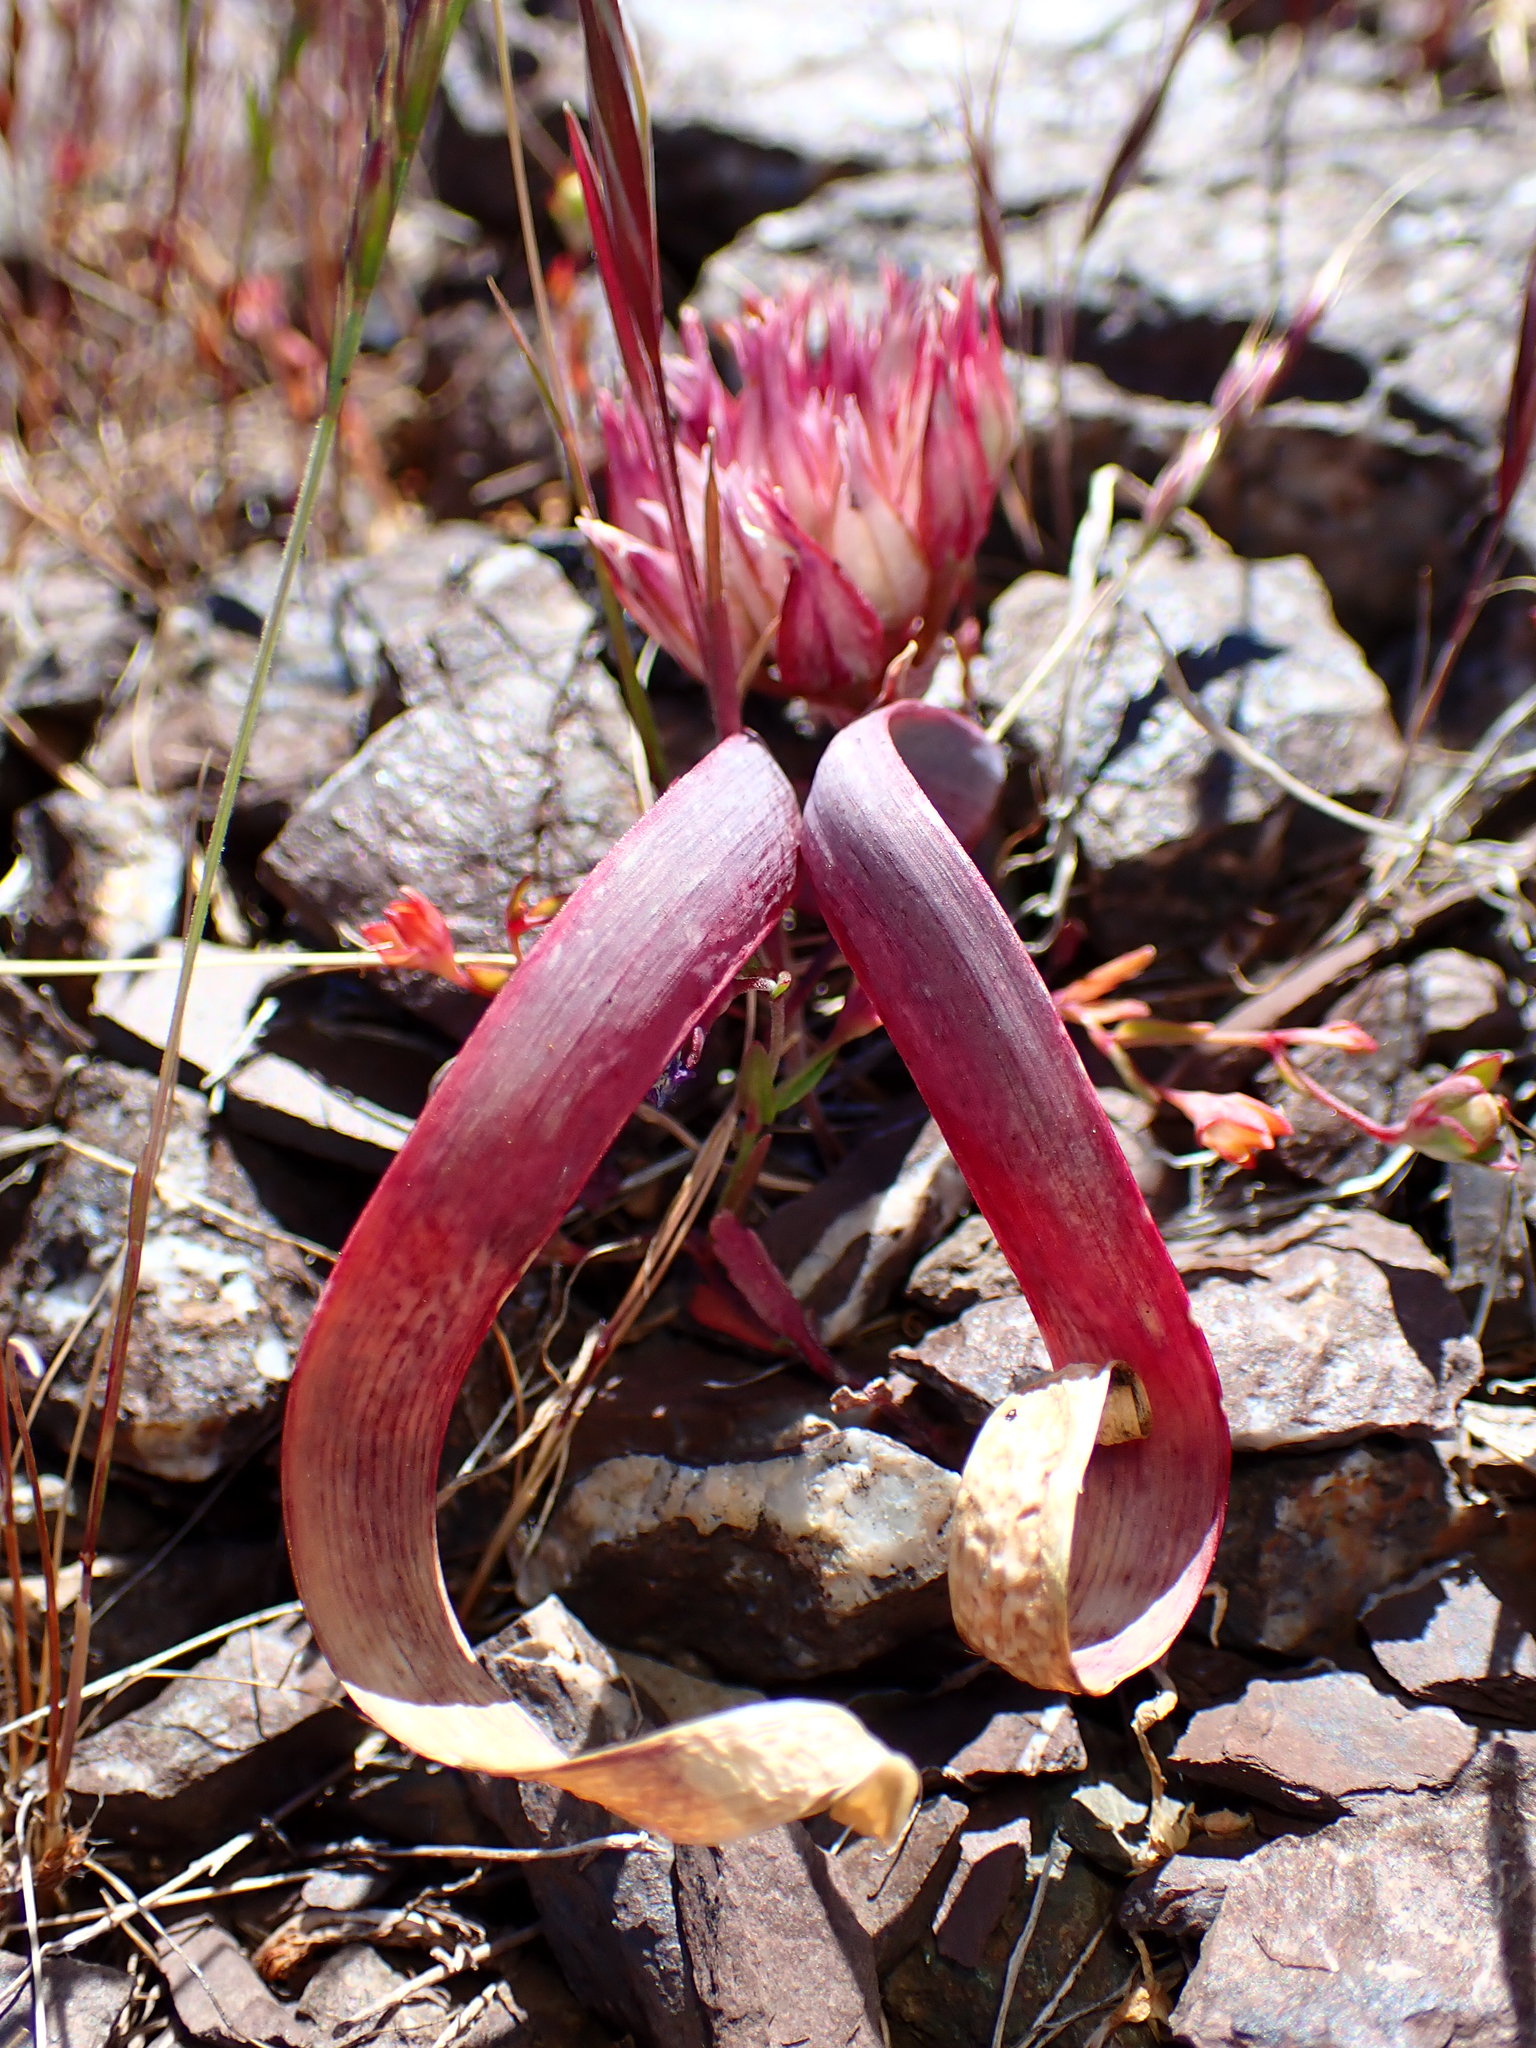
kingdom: Plantae
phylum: Tracheophyta
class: Liliopsida
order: Asparagales
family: Amaryllidaceae
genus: Allium
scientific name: Allium falcifolium
